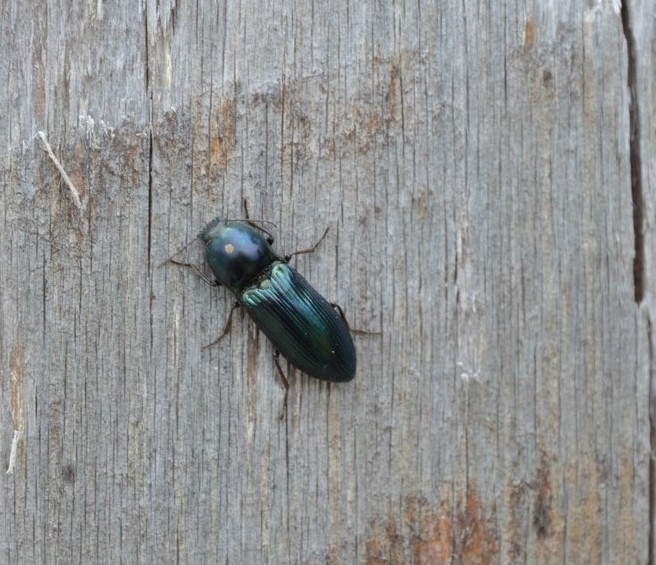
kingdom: Animalia
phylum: Arthropoda
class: Insecta
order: Coleoptera
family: Elateridae
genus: Selatosomus
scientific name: Selatosomus aeneus
